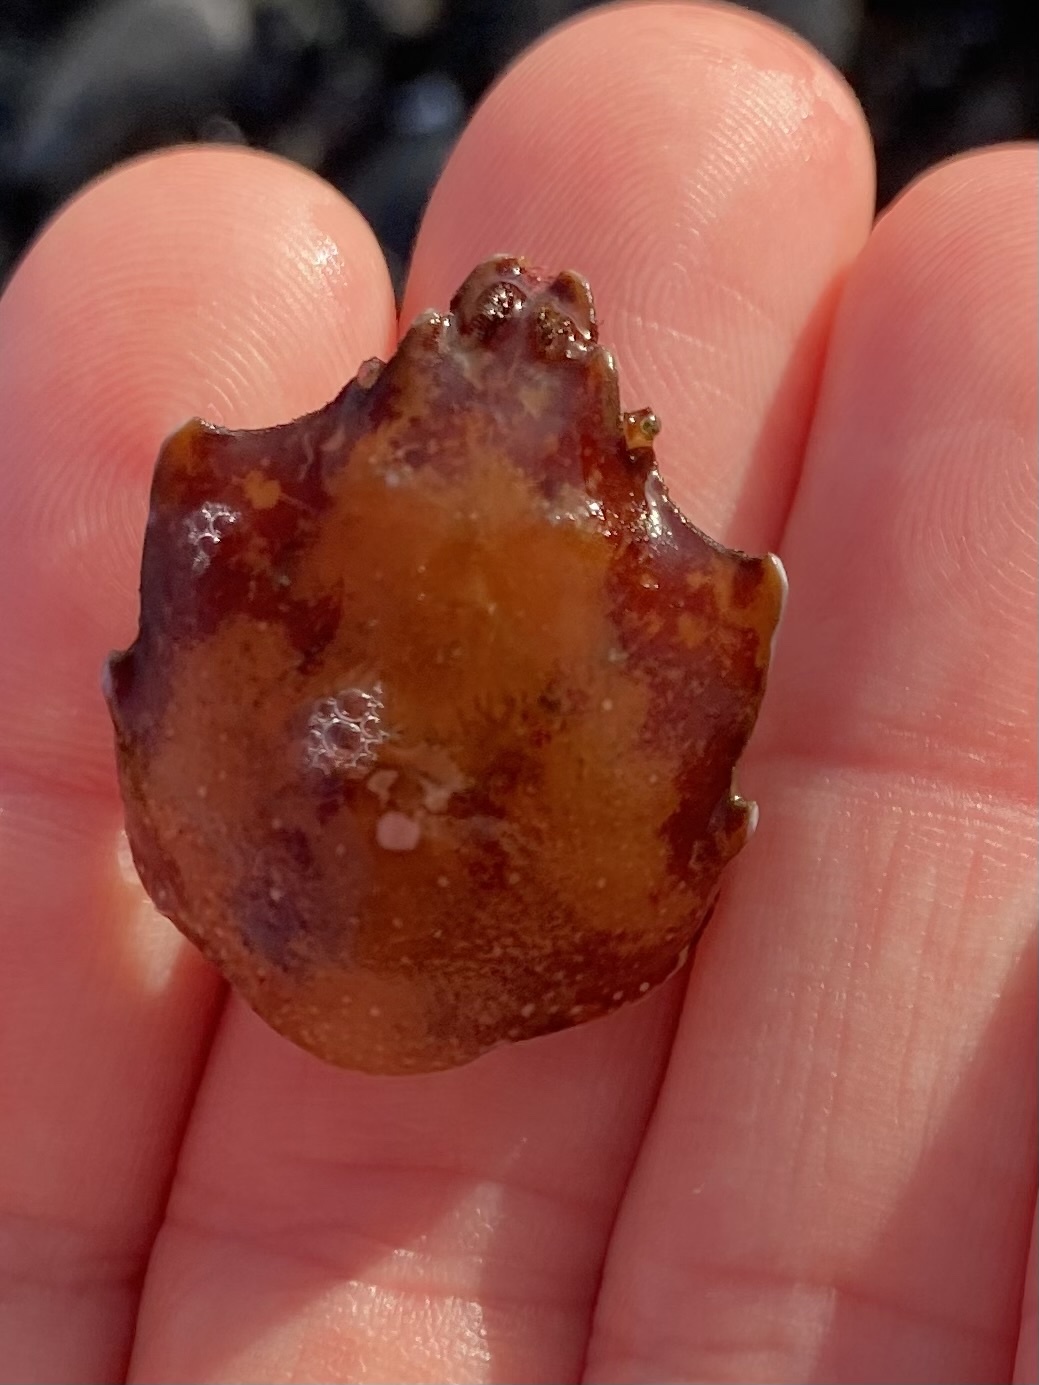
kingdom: Animalia
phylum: Arthropoda
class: Malacostraca
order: Decapoda
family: Epialtidae
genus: Pugettia
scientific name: Pugettia producta
